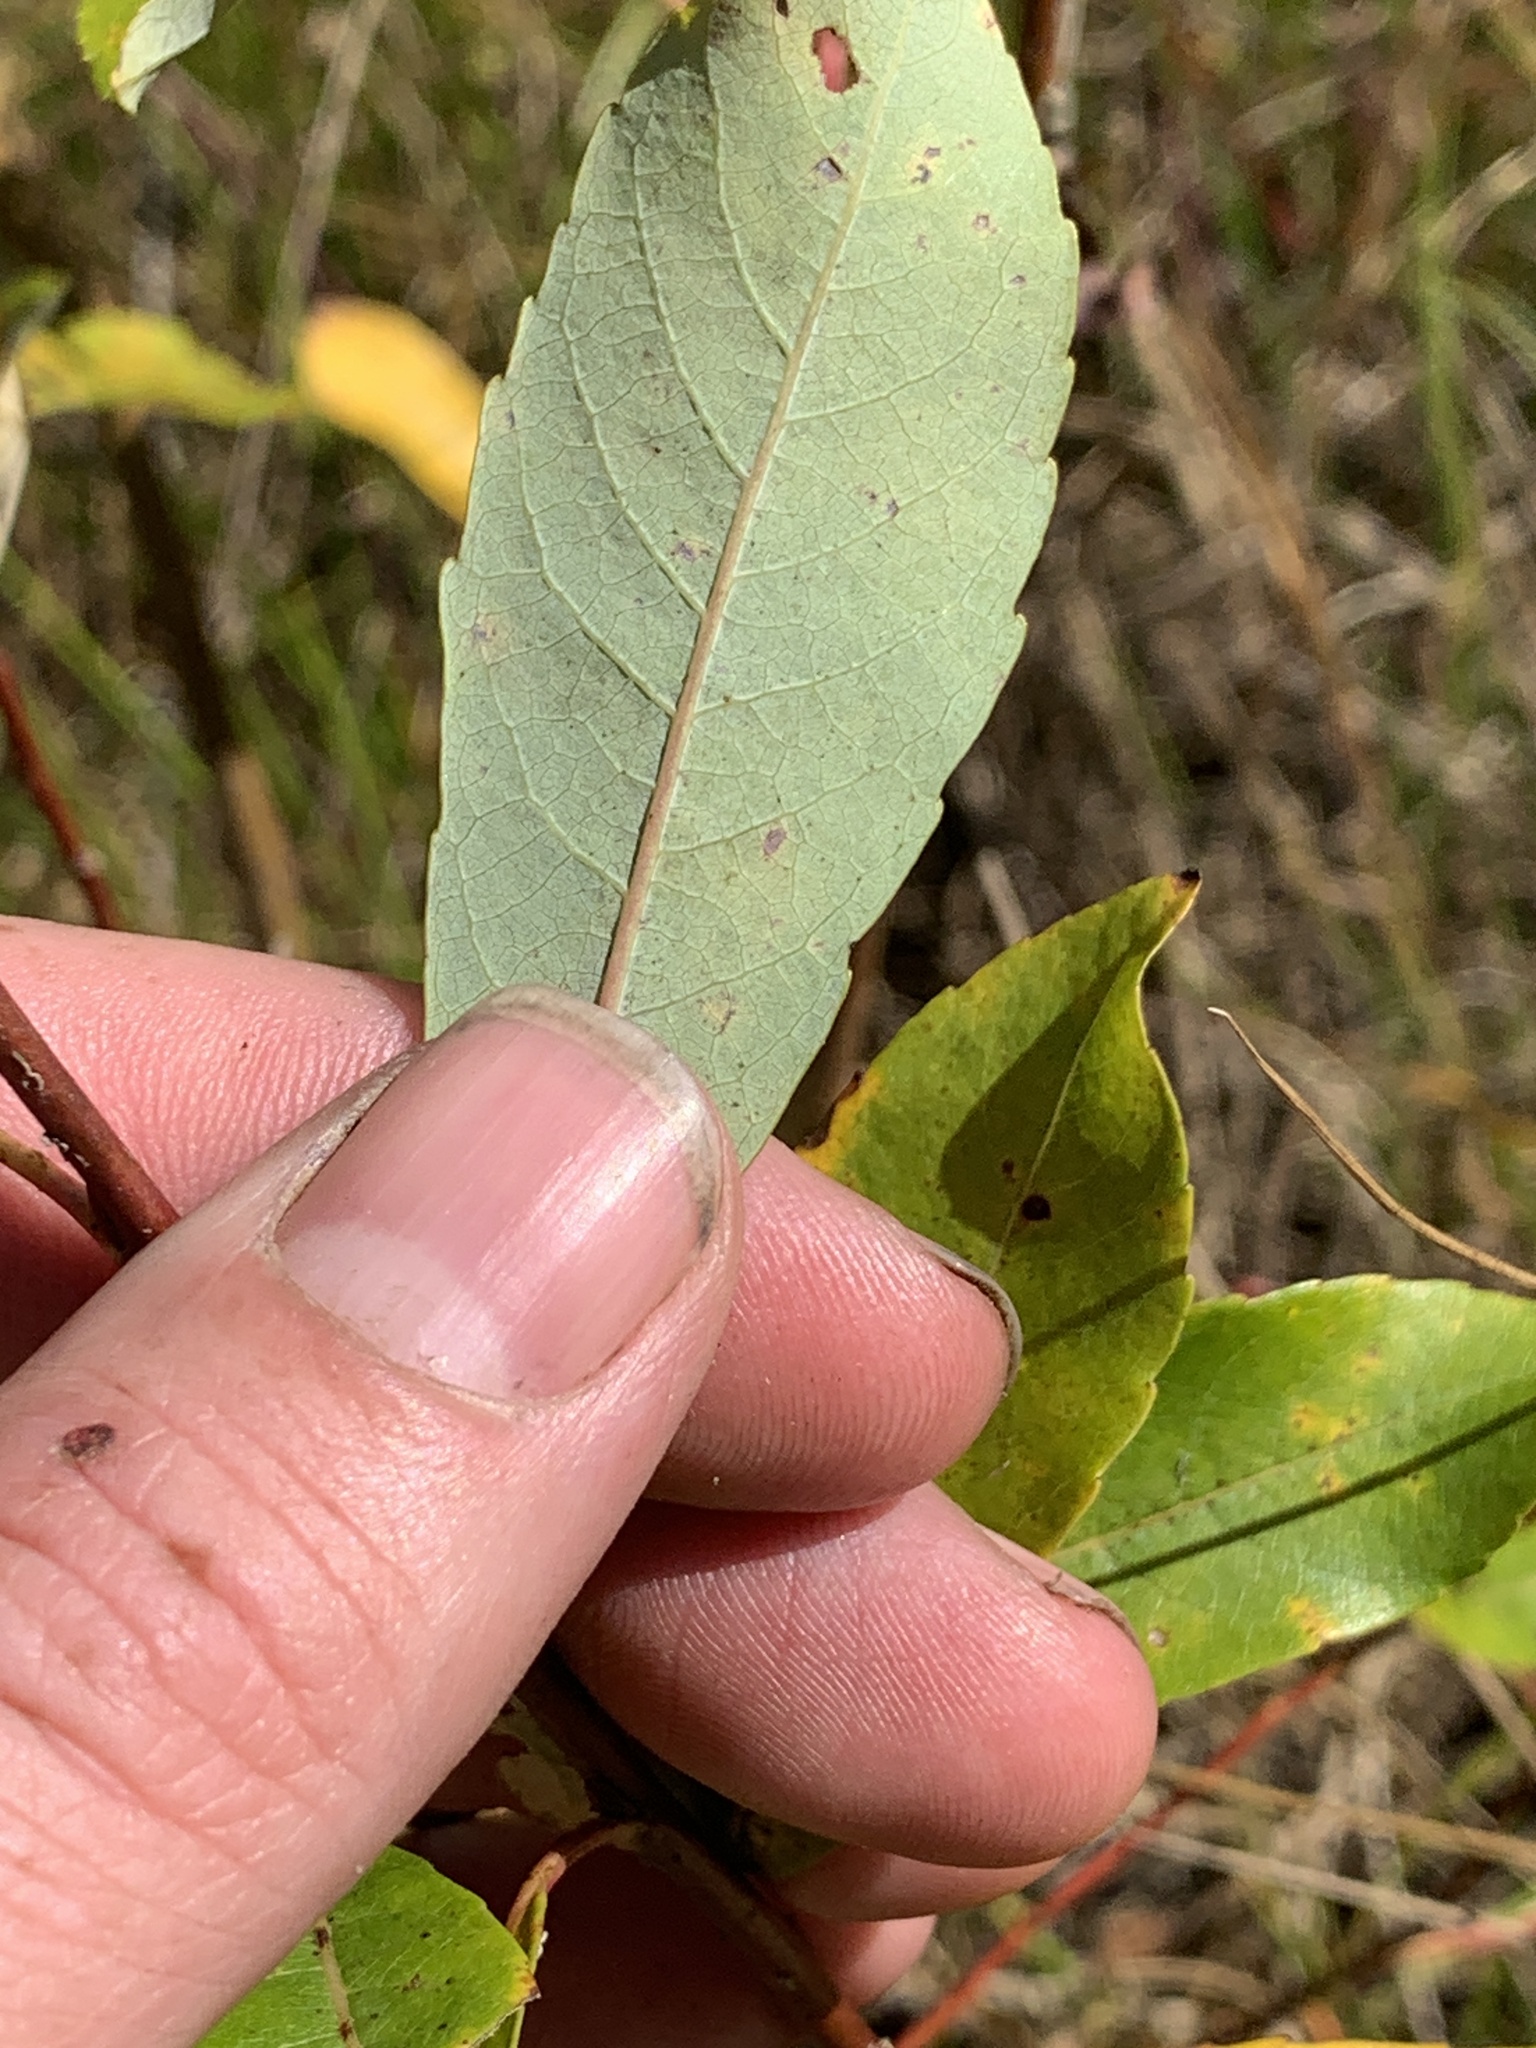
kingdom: Plantae
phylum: Tracheophyta
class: Magnoliopsida
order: Malpighiales
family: Salicaceae
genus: Salix
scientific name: Salix discolor
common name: Glaucous willow
